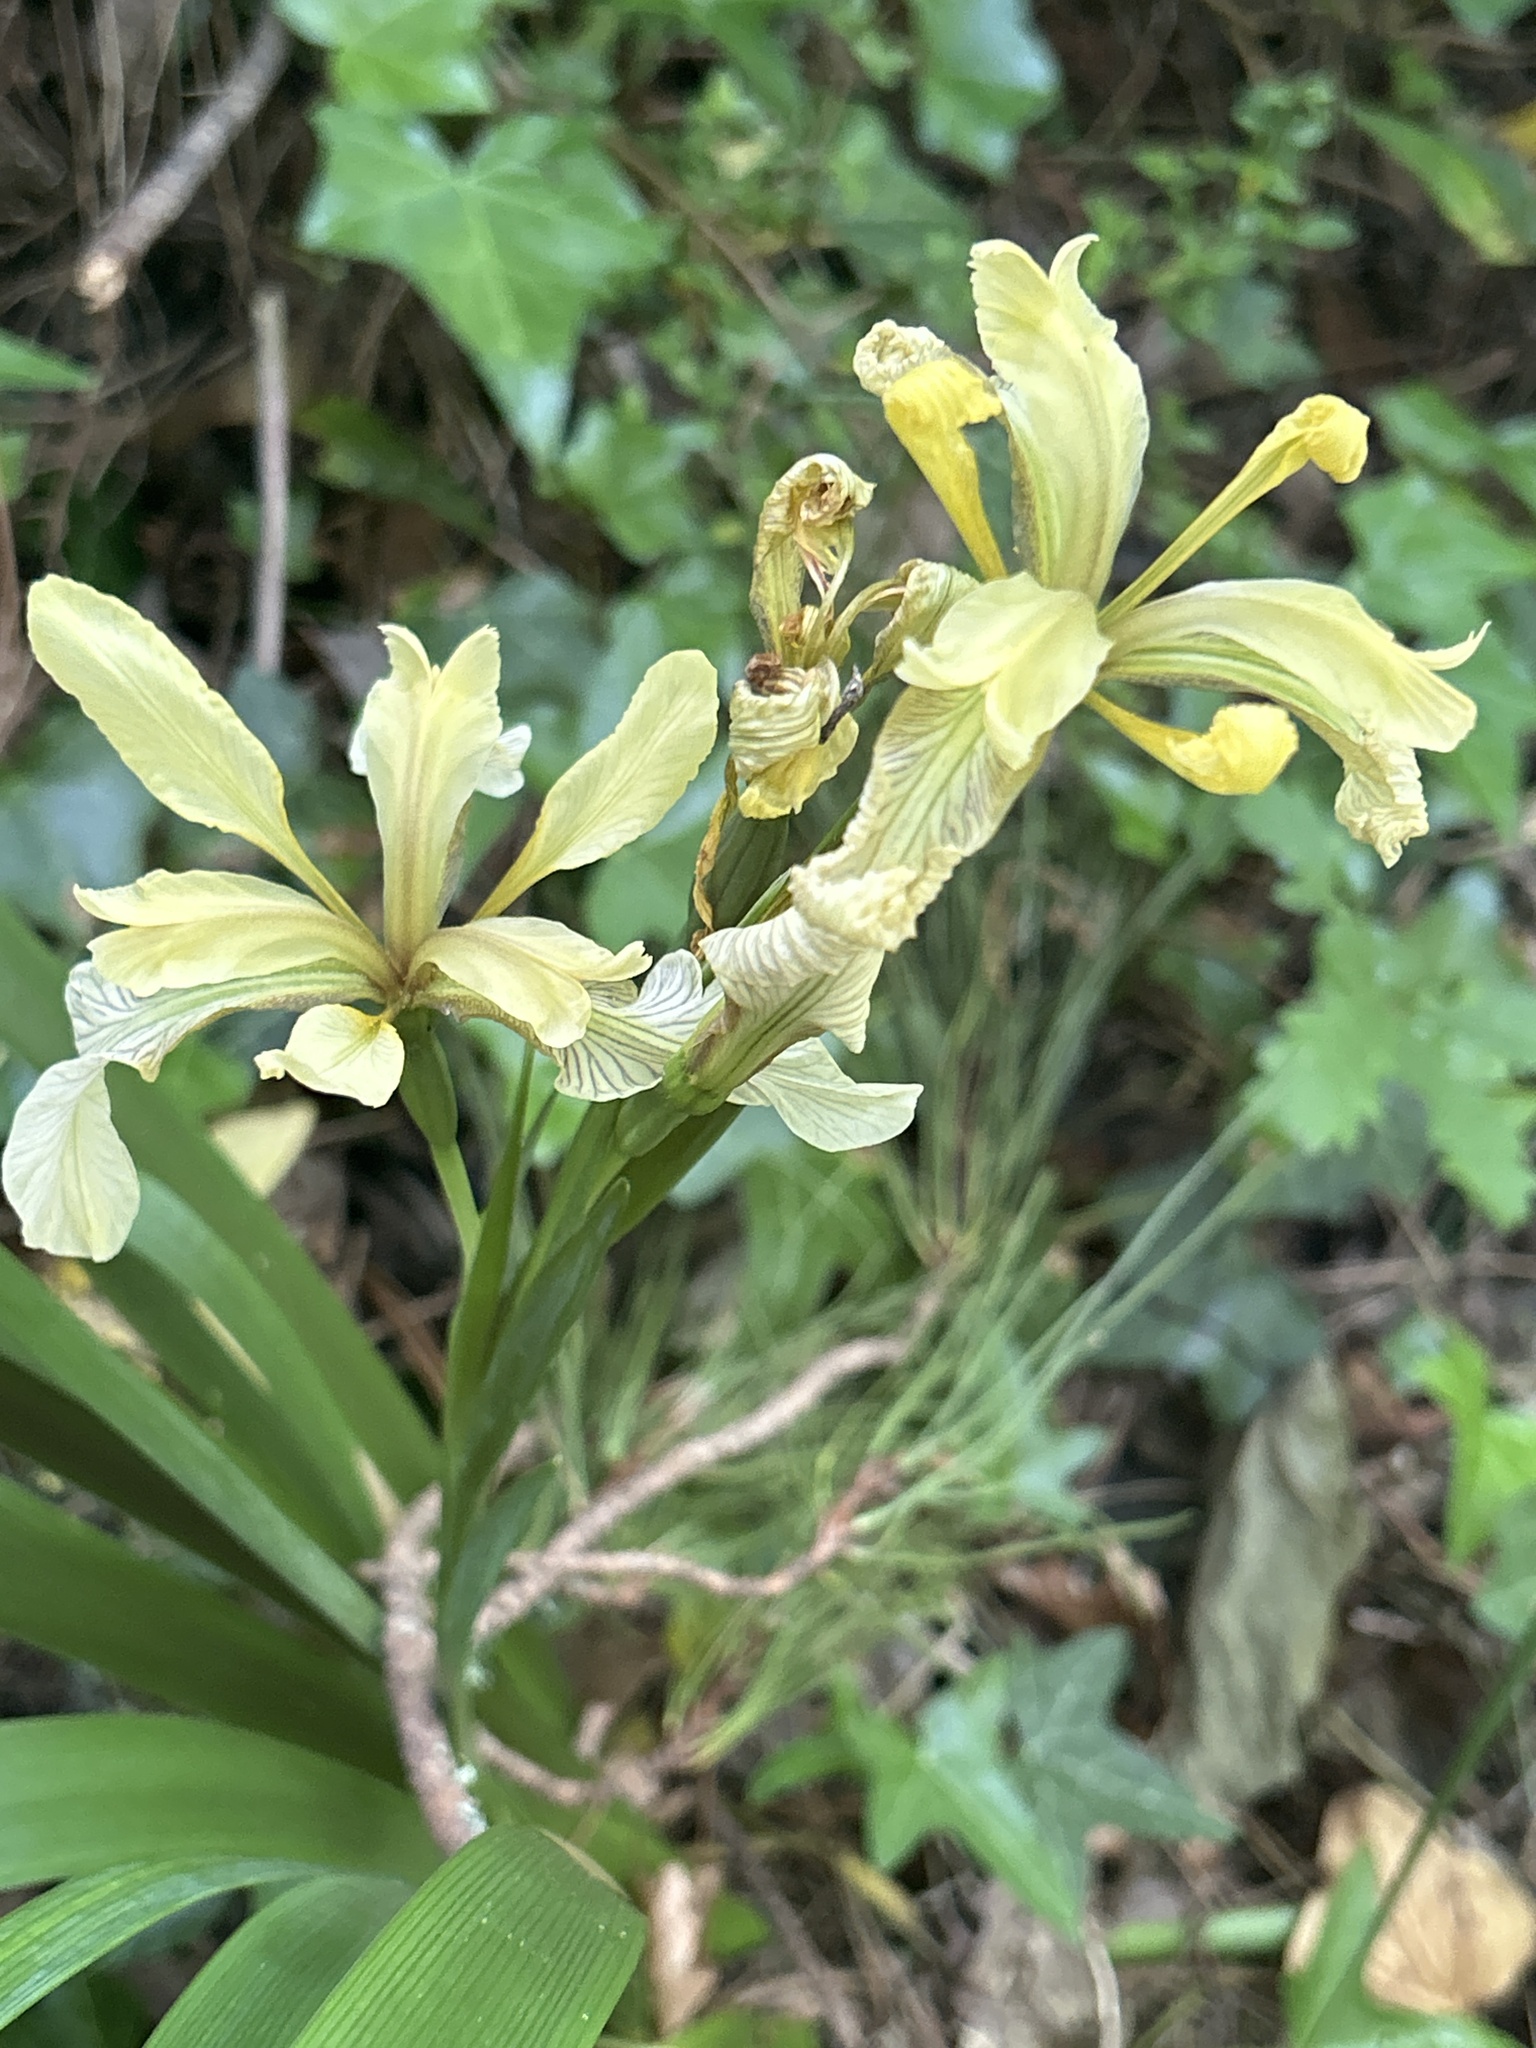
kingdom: Plantae
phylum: Tracheophyta
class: Liliopsida
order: Asparagales
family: Iridaceae
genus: Iris
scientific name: Iris foetidissima
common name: Stinking iris
